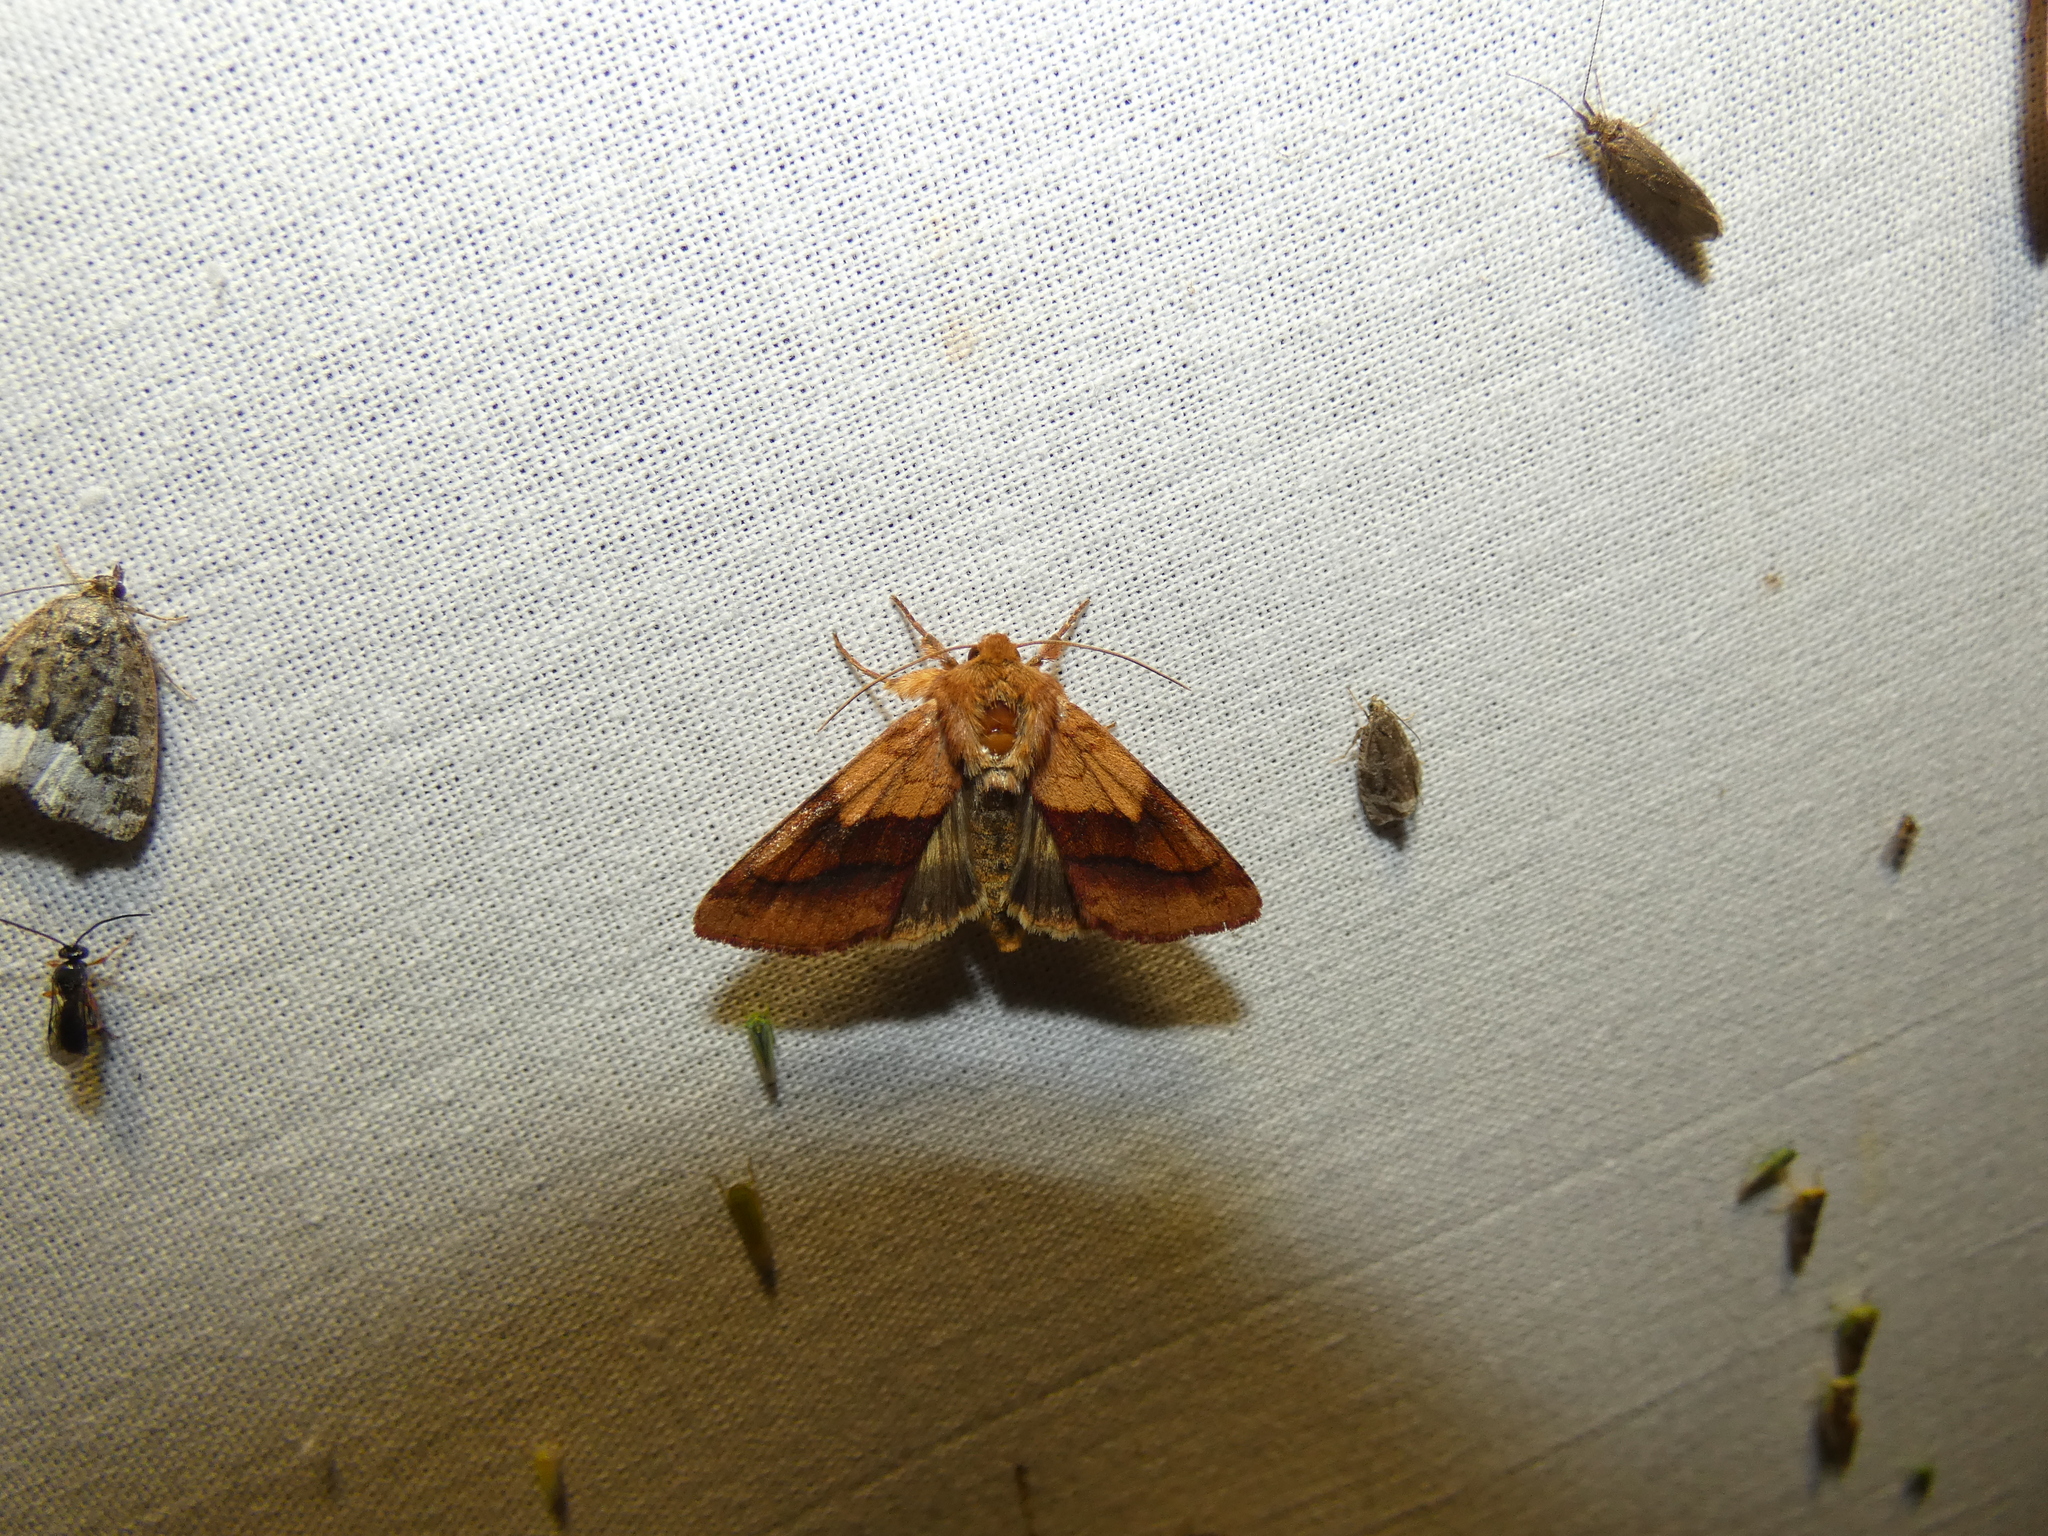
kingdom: Animalia
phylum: Arthropoda
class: Insecta
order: Lepidoptera
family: Noctuidae
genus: Pyrrhia
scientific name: Pyrrhia exprimens
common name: Purple-lined sallow
